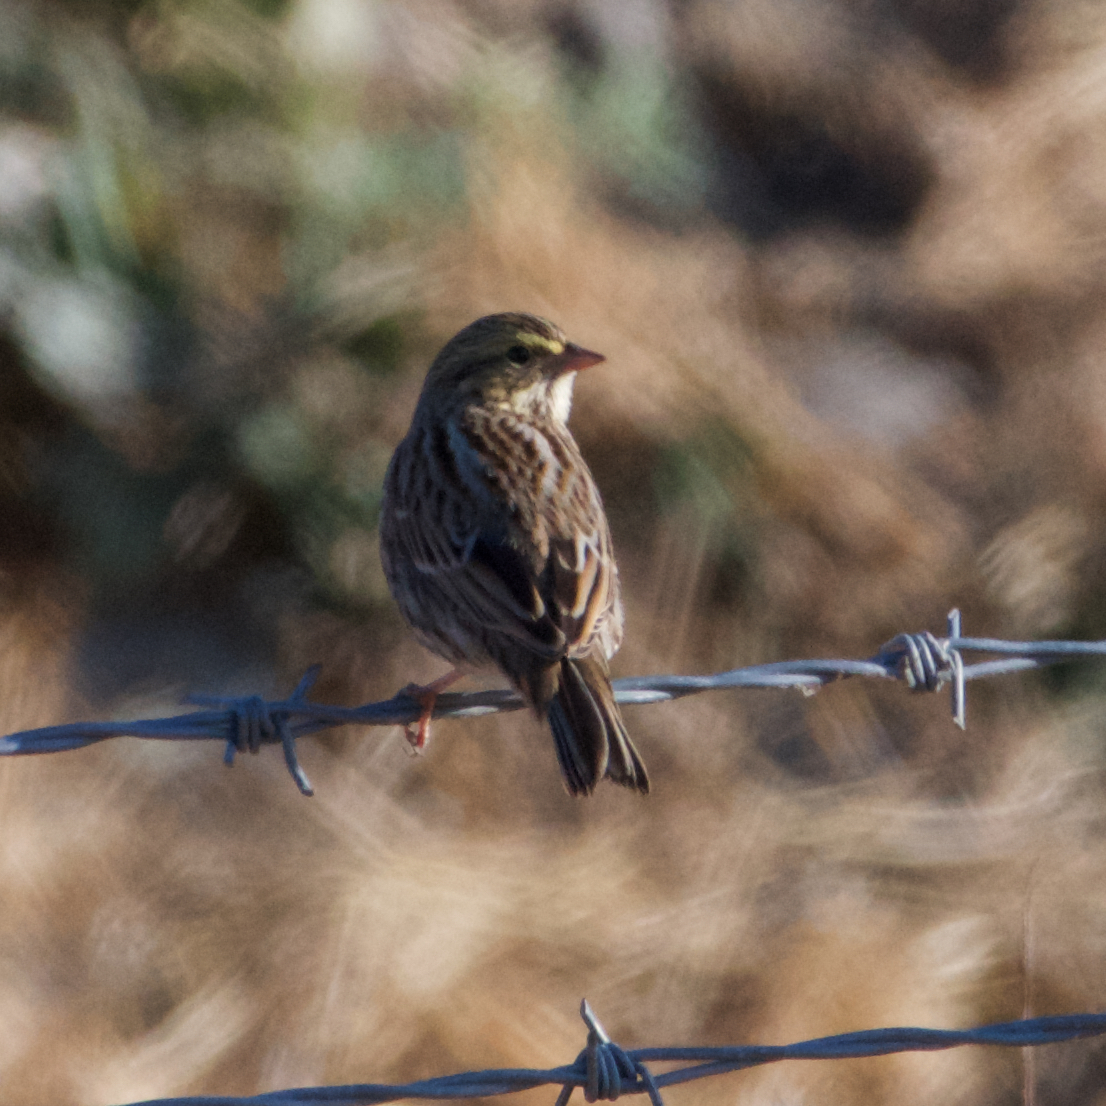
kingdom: Animalia
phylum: Chordata
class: Aves
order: Passeriformes
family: Passerellidae
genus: Passerculus
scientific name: Passerculus sandwichensis
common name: Savannah sparrow
